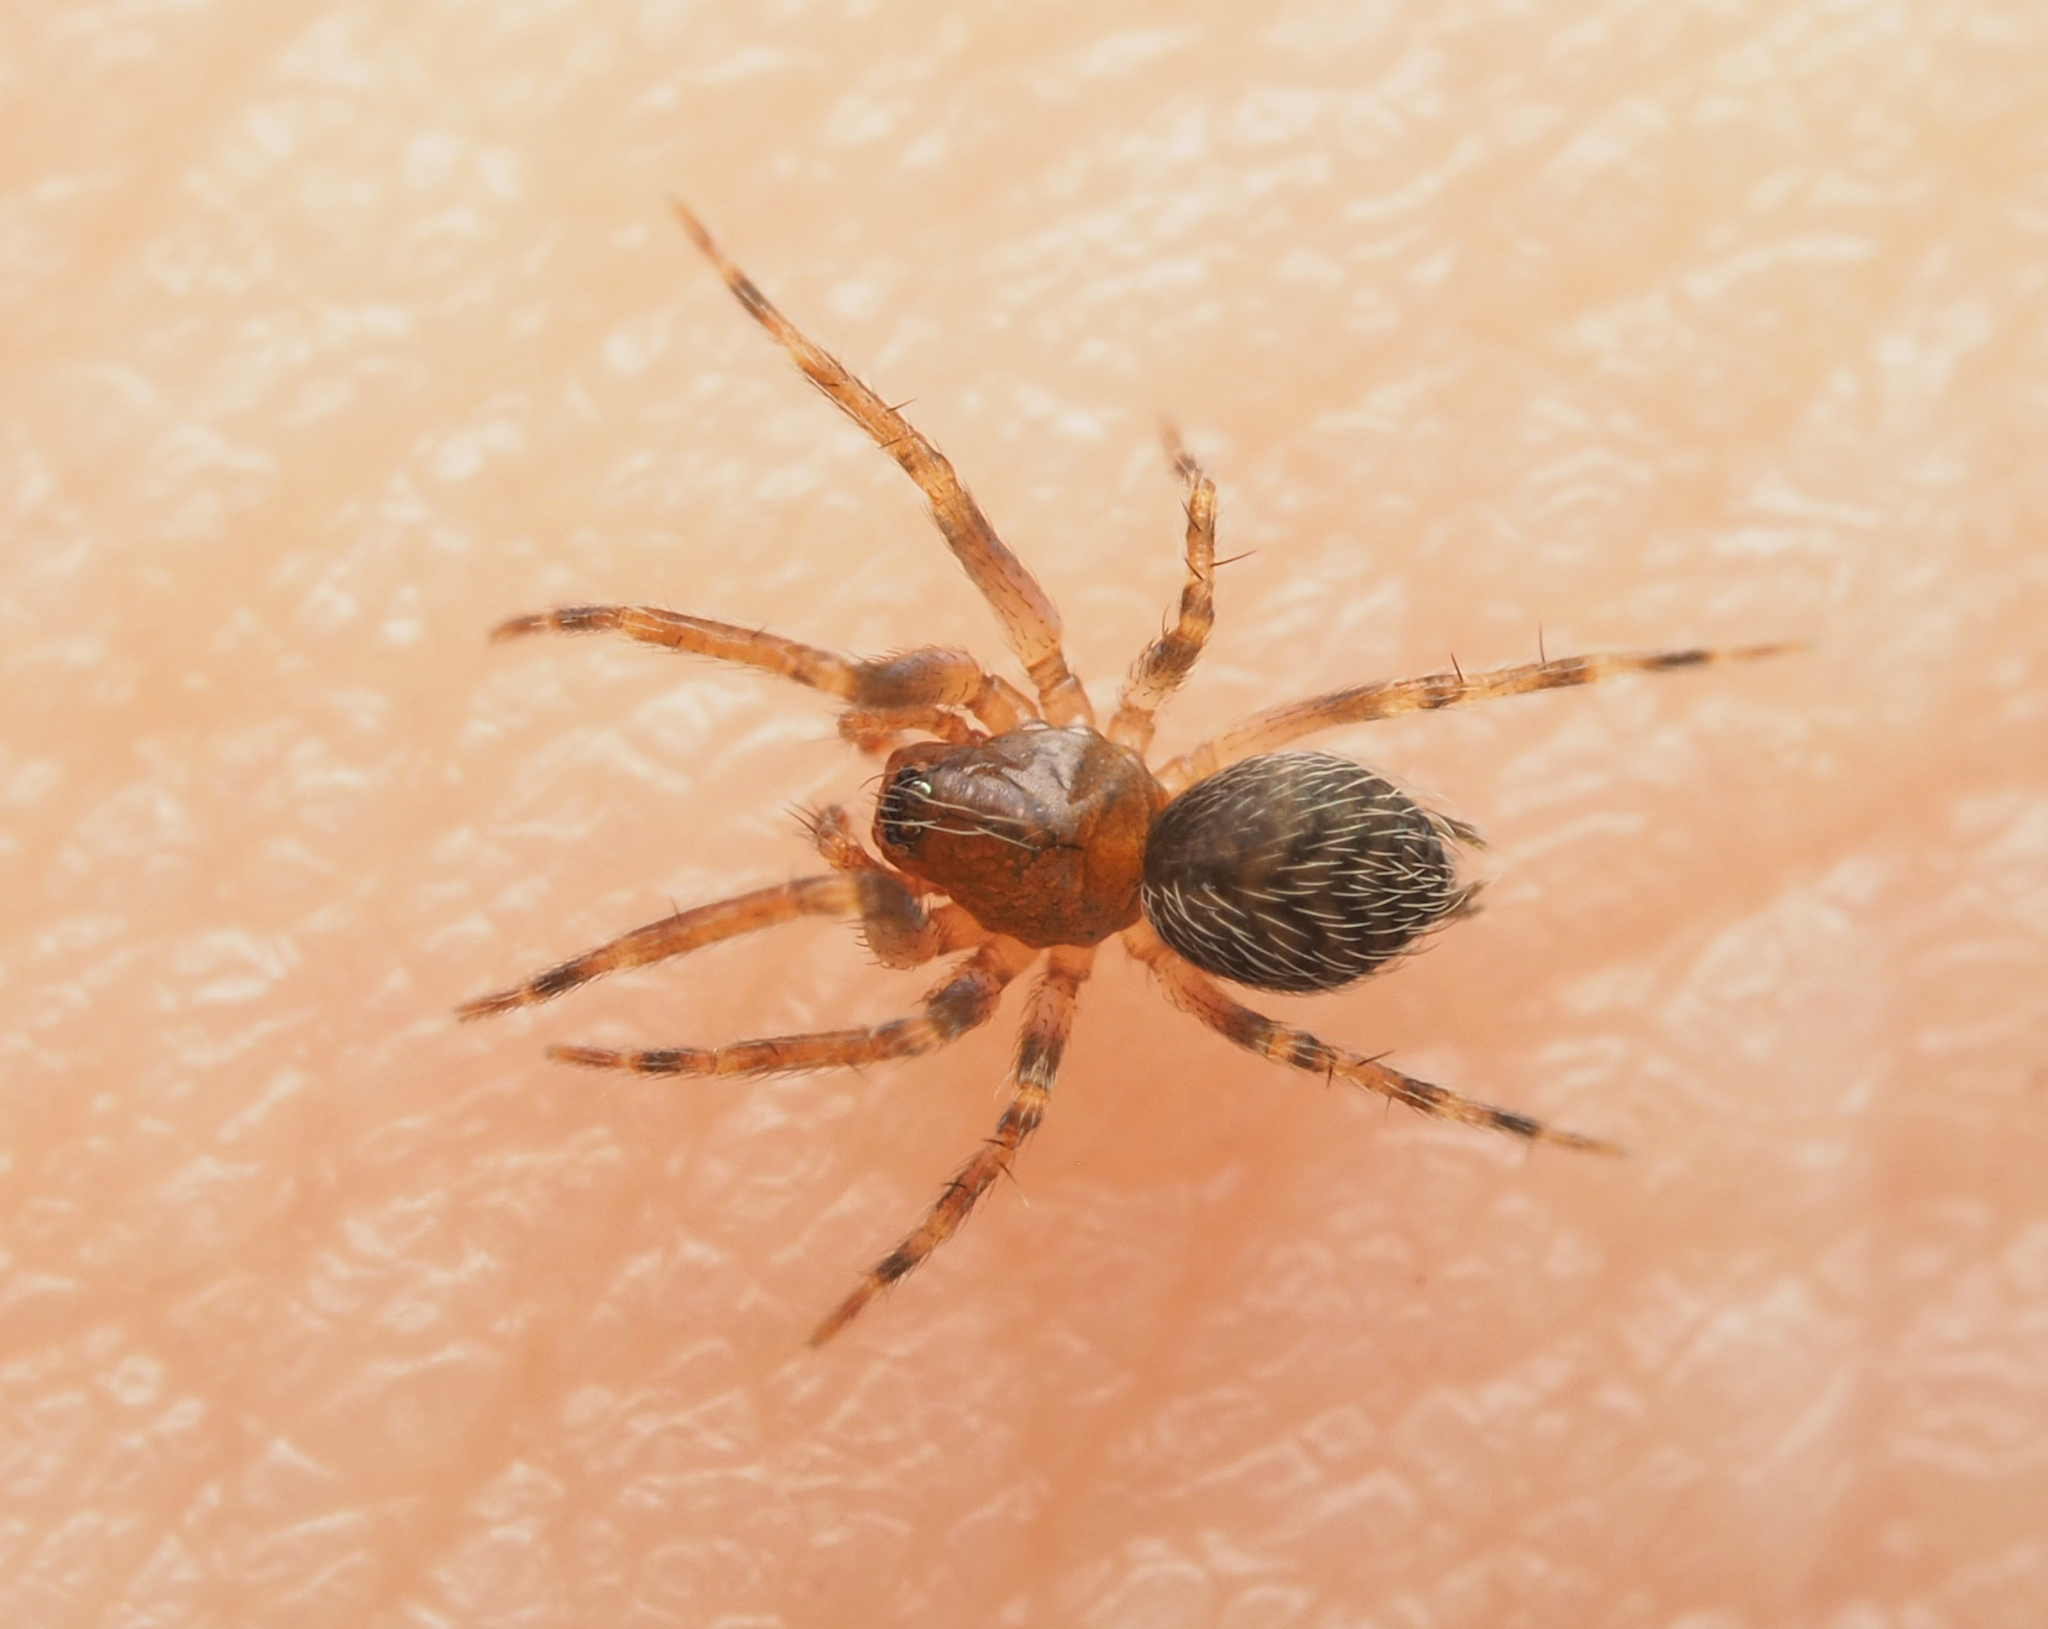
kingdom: Animalia
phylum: Arthropoda
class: Arachnida
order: Araneae
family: Hahniidae
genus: Alistra
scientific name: Alistra
